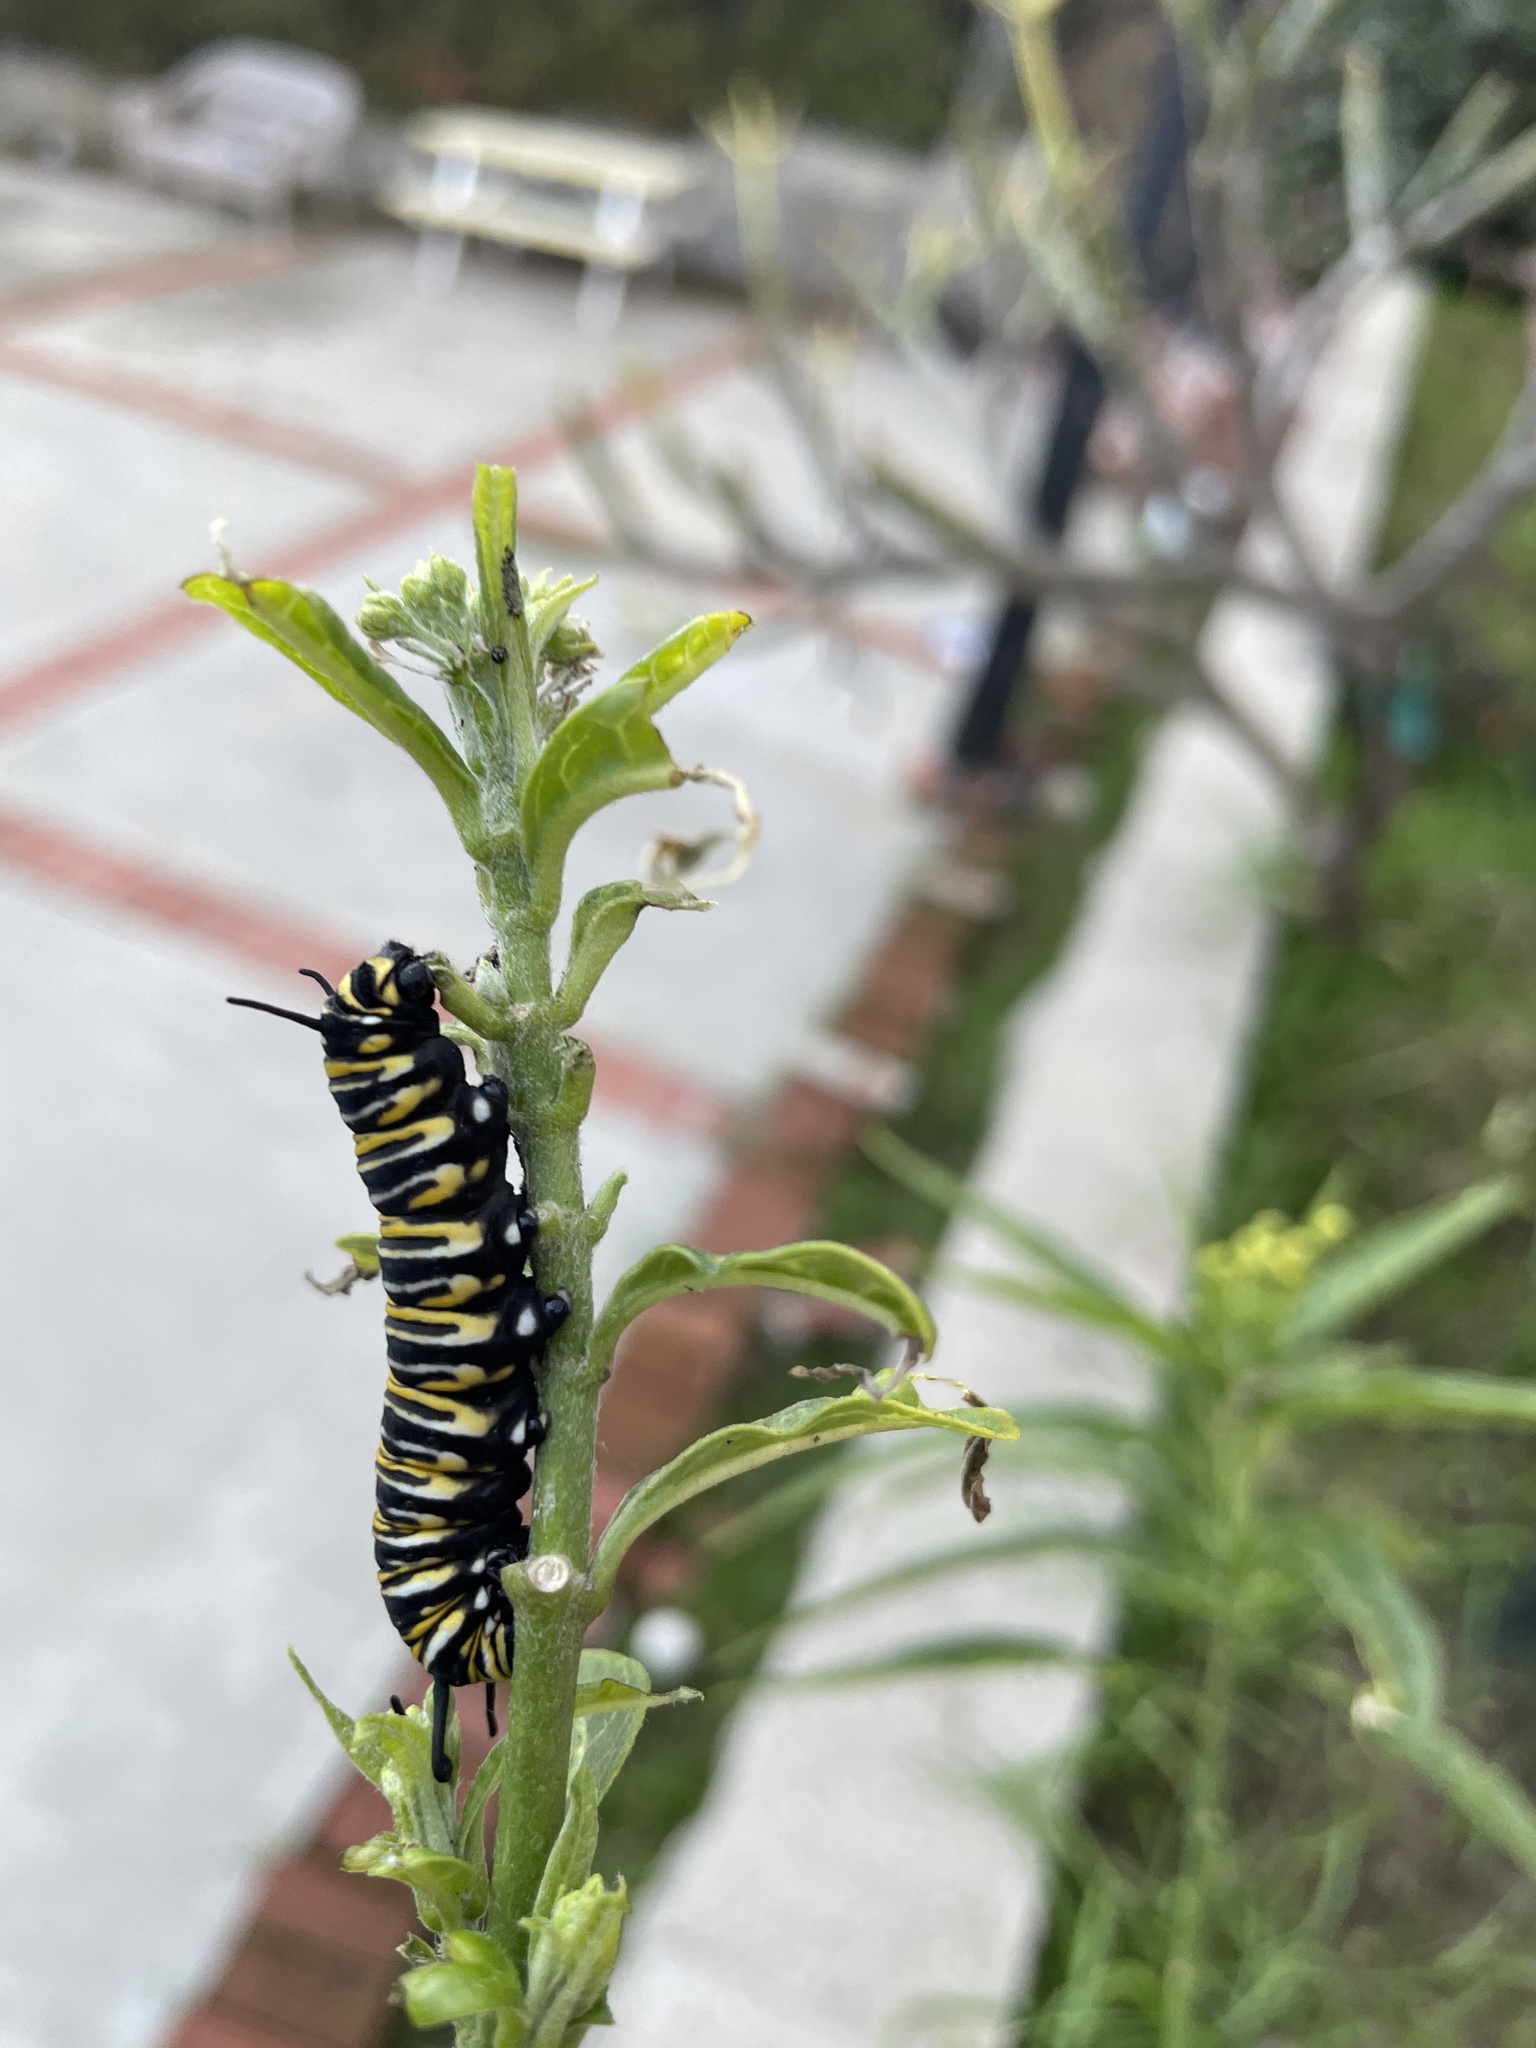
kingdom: Animalia
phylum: Arthropoda
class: Insecta
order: Lepidoptera
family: Nymphalidae
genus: Danaus
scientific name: Danaus plexippus
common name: Monarch
